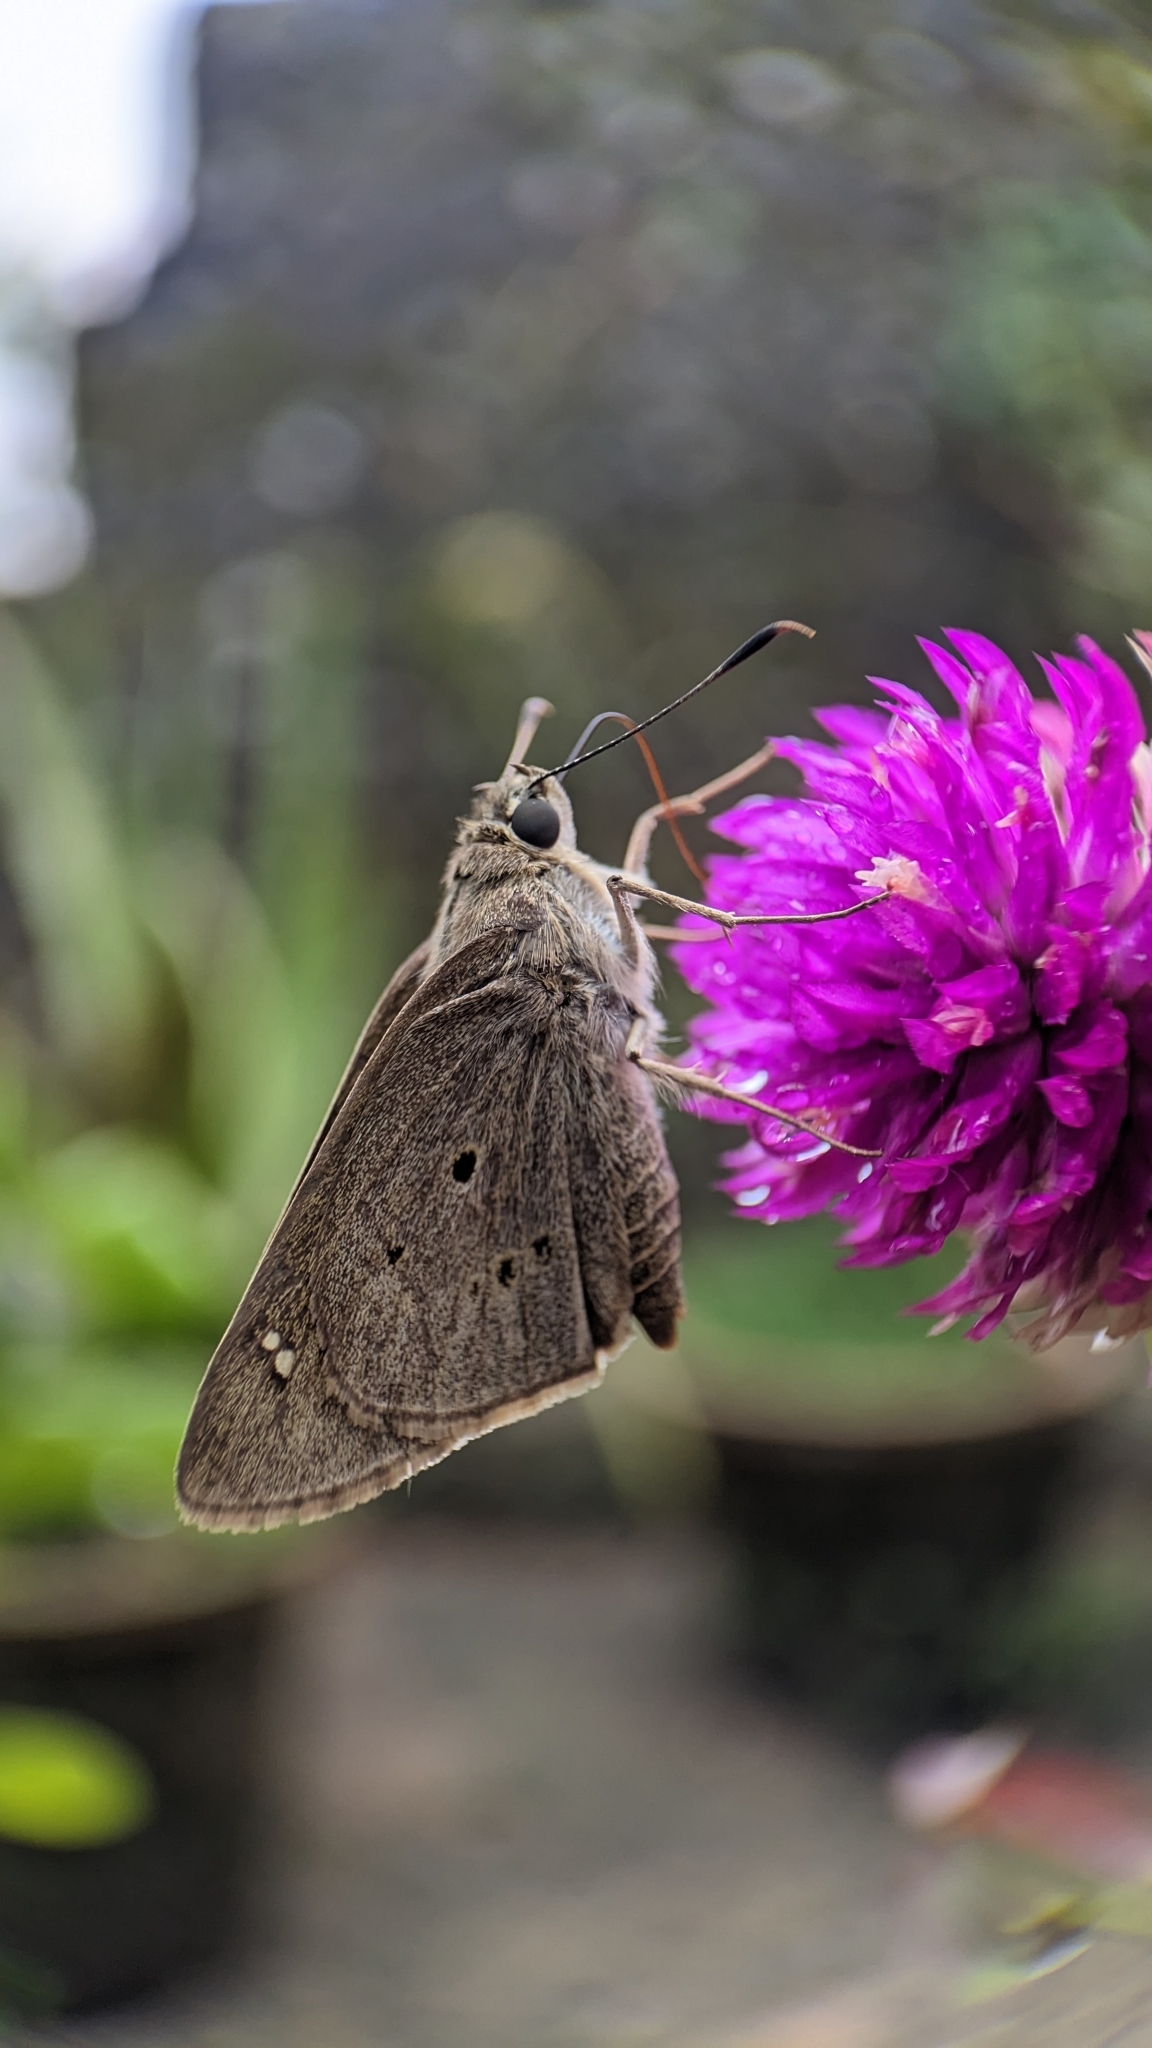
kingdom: Animalia
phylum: Arthropoda
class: Insecta
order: Lepidoptera
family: Hesperiidae
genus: Suastus
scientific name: Suastus gremius
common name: Indian palm bob
